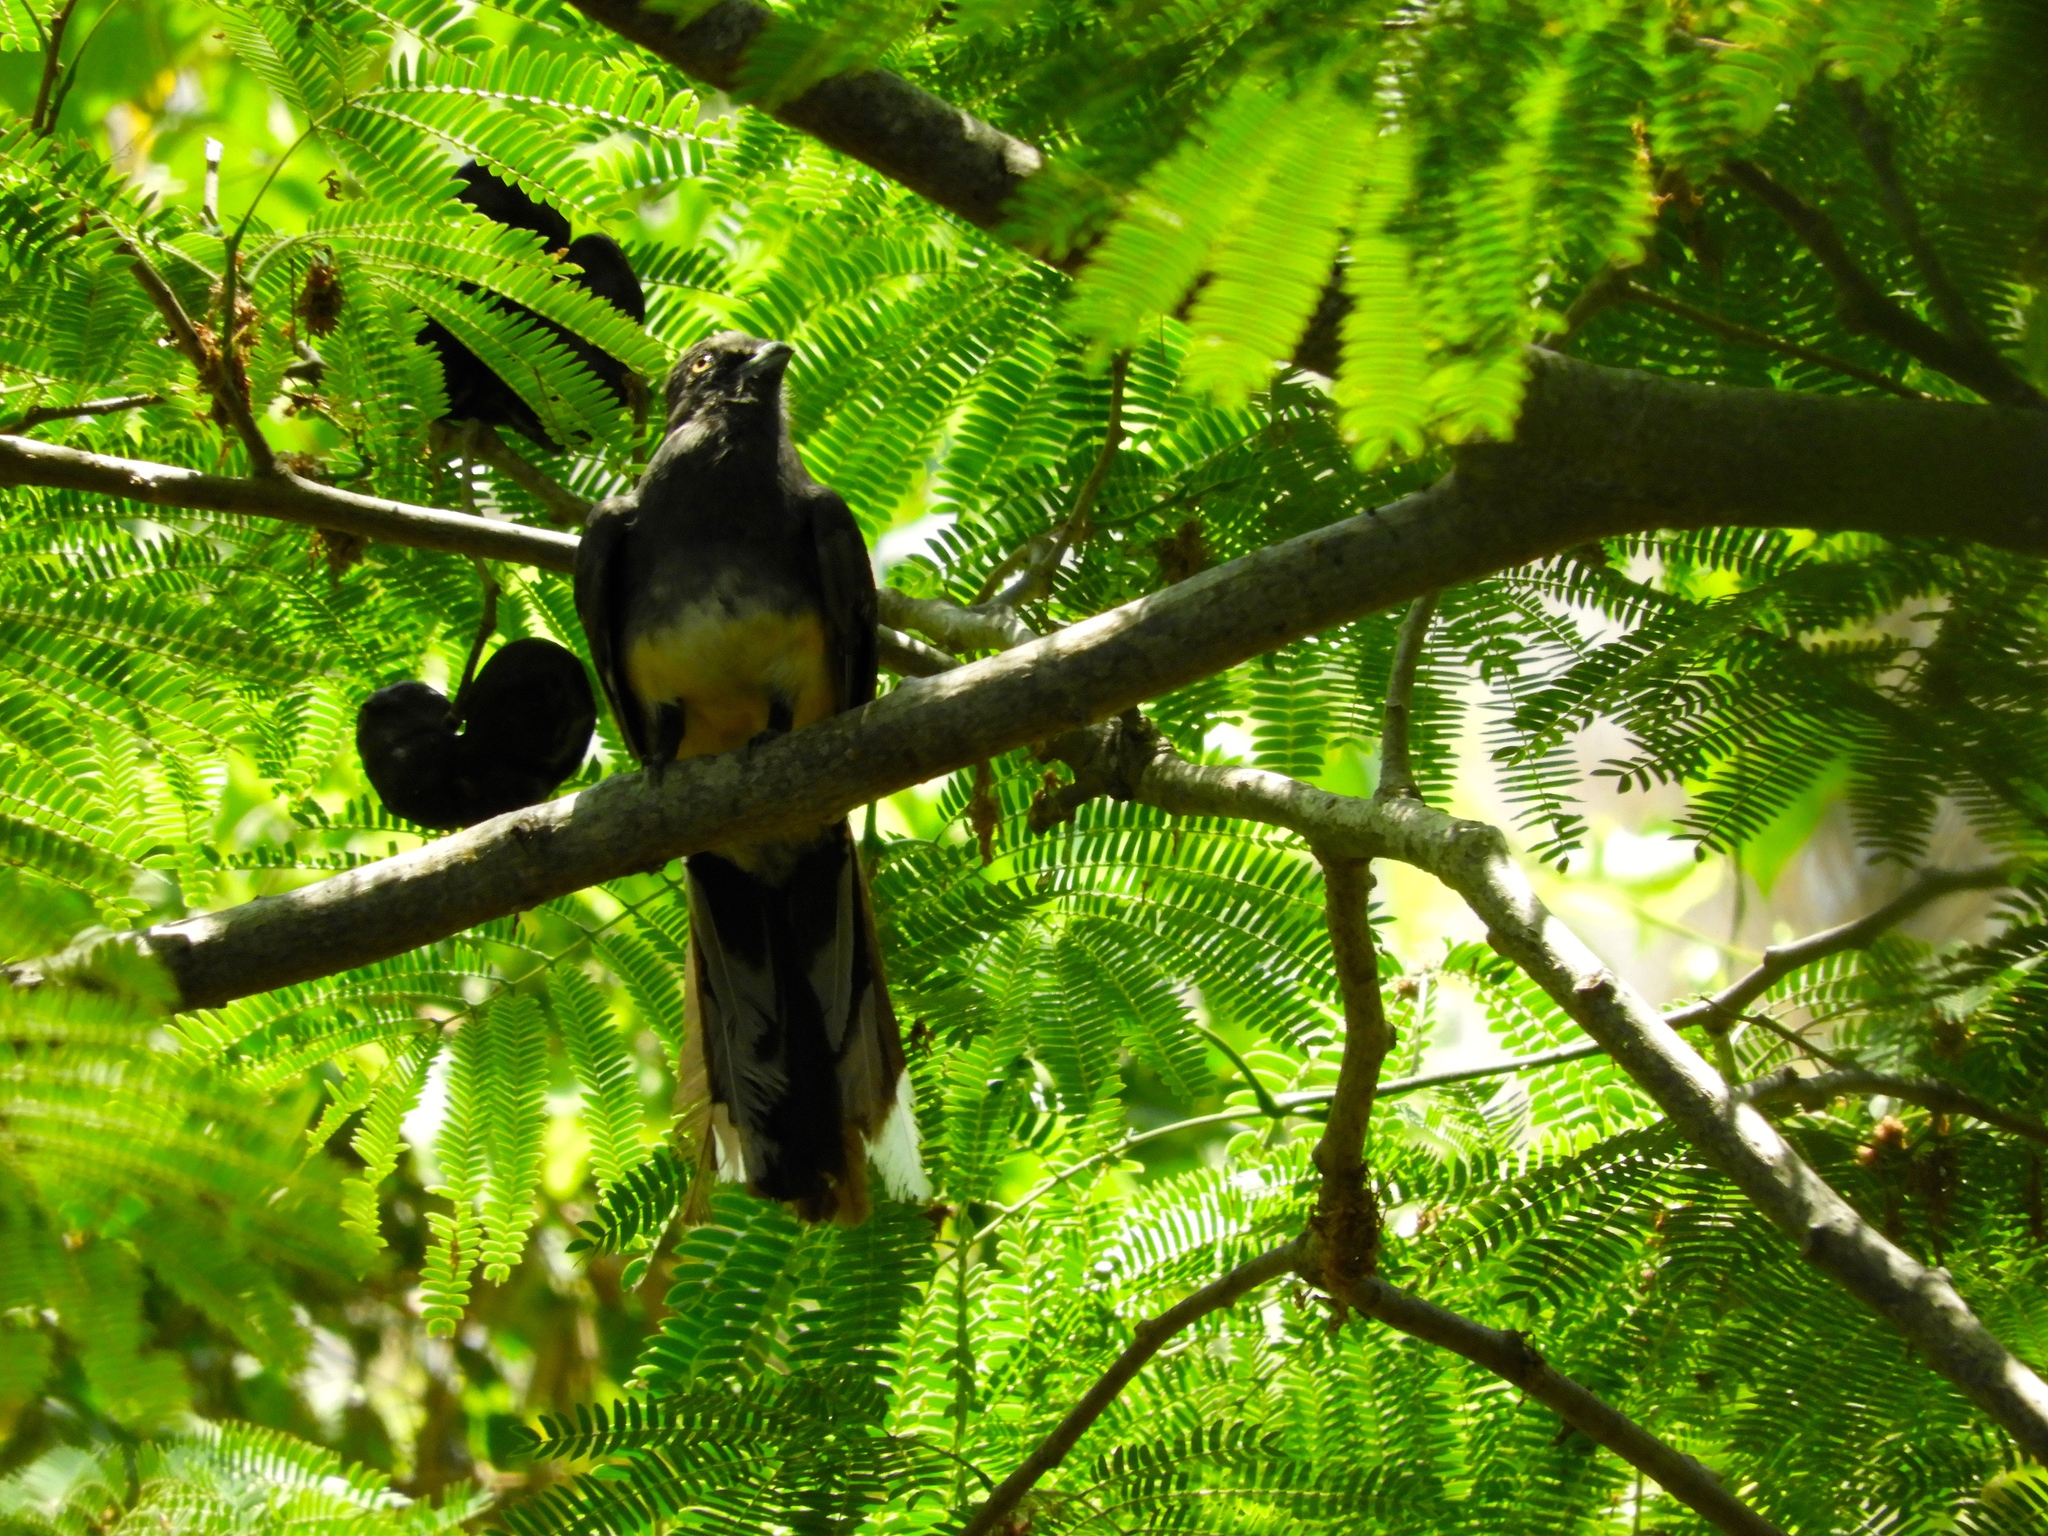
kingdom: Animalia
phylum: Chordata
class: Aves
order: Trogoniformes
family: Trogonidae
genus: Trogon
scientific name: Trogon citreolus
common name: Citreoline trogon
